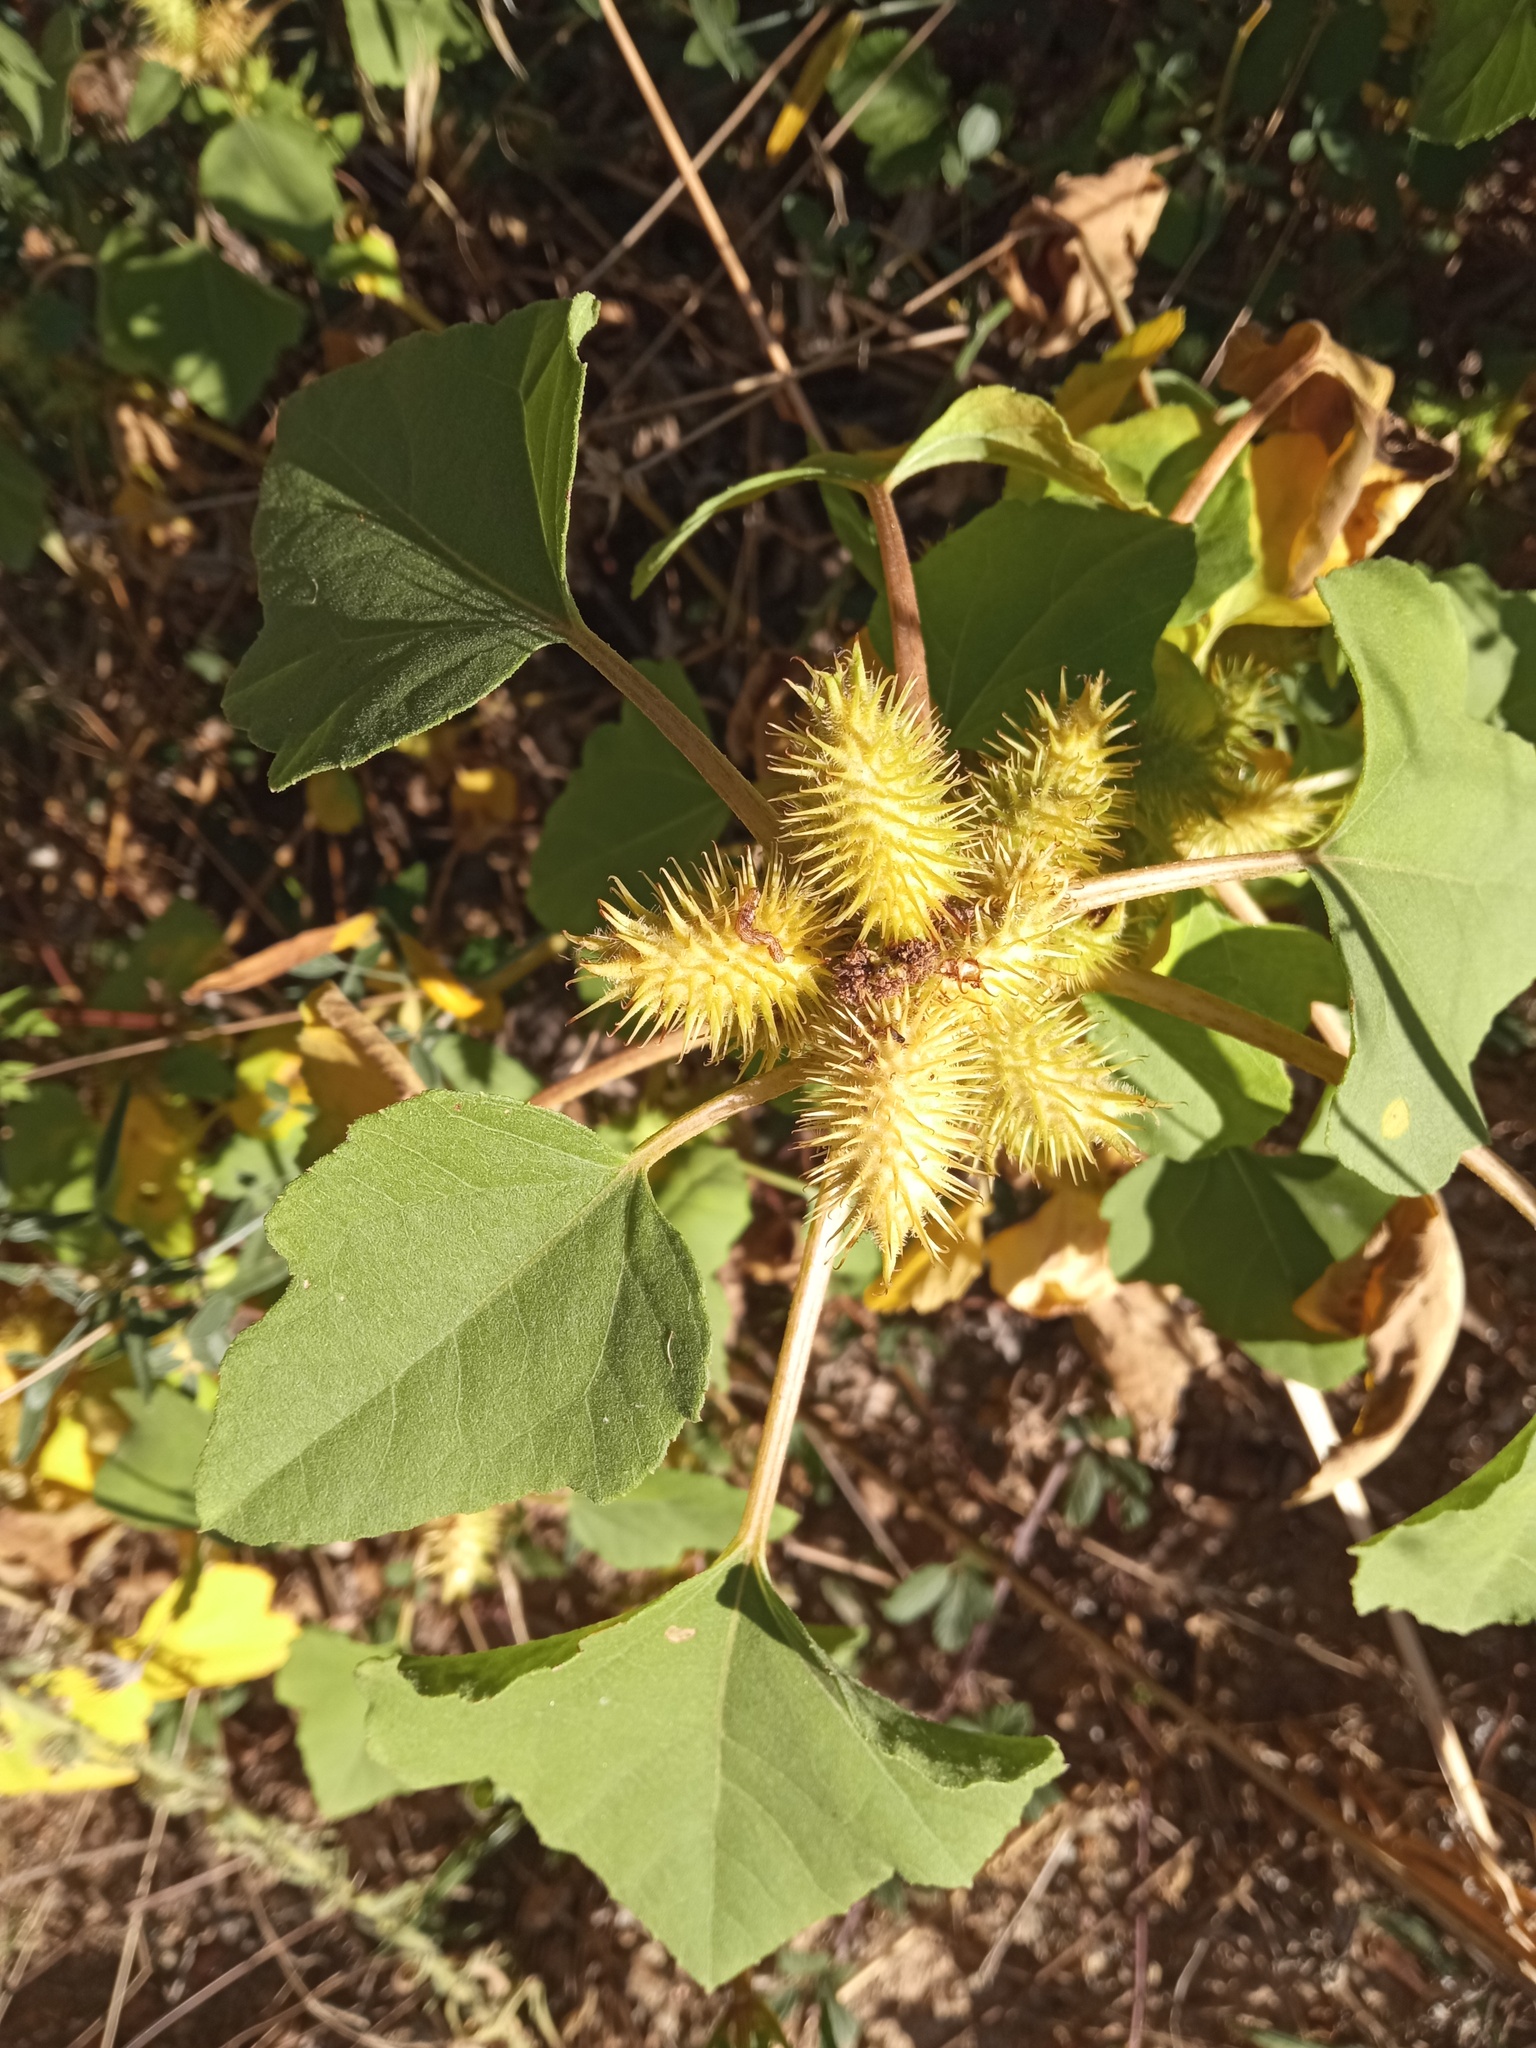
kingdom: Plantae
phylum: Tracheophyta
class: Magnoliopsida
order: Asterales
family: Asteraceae
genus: Xanthium
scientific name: Xanthium orientale
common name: Californian burr
